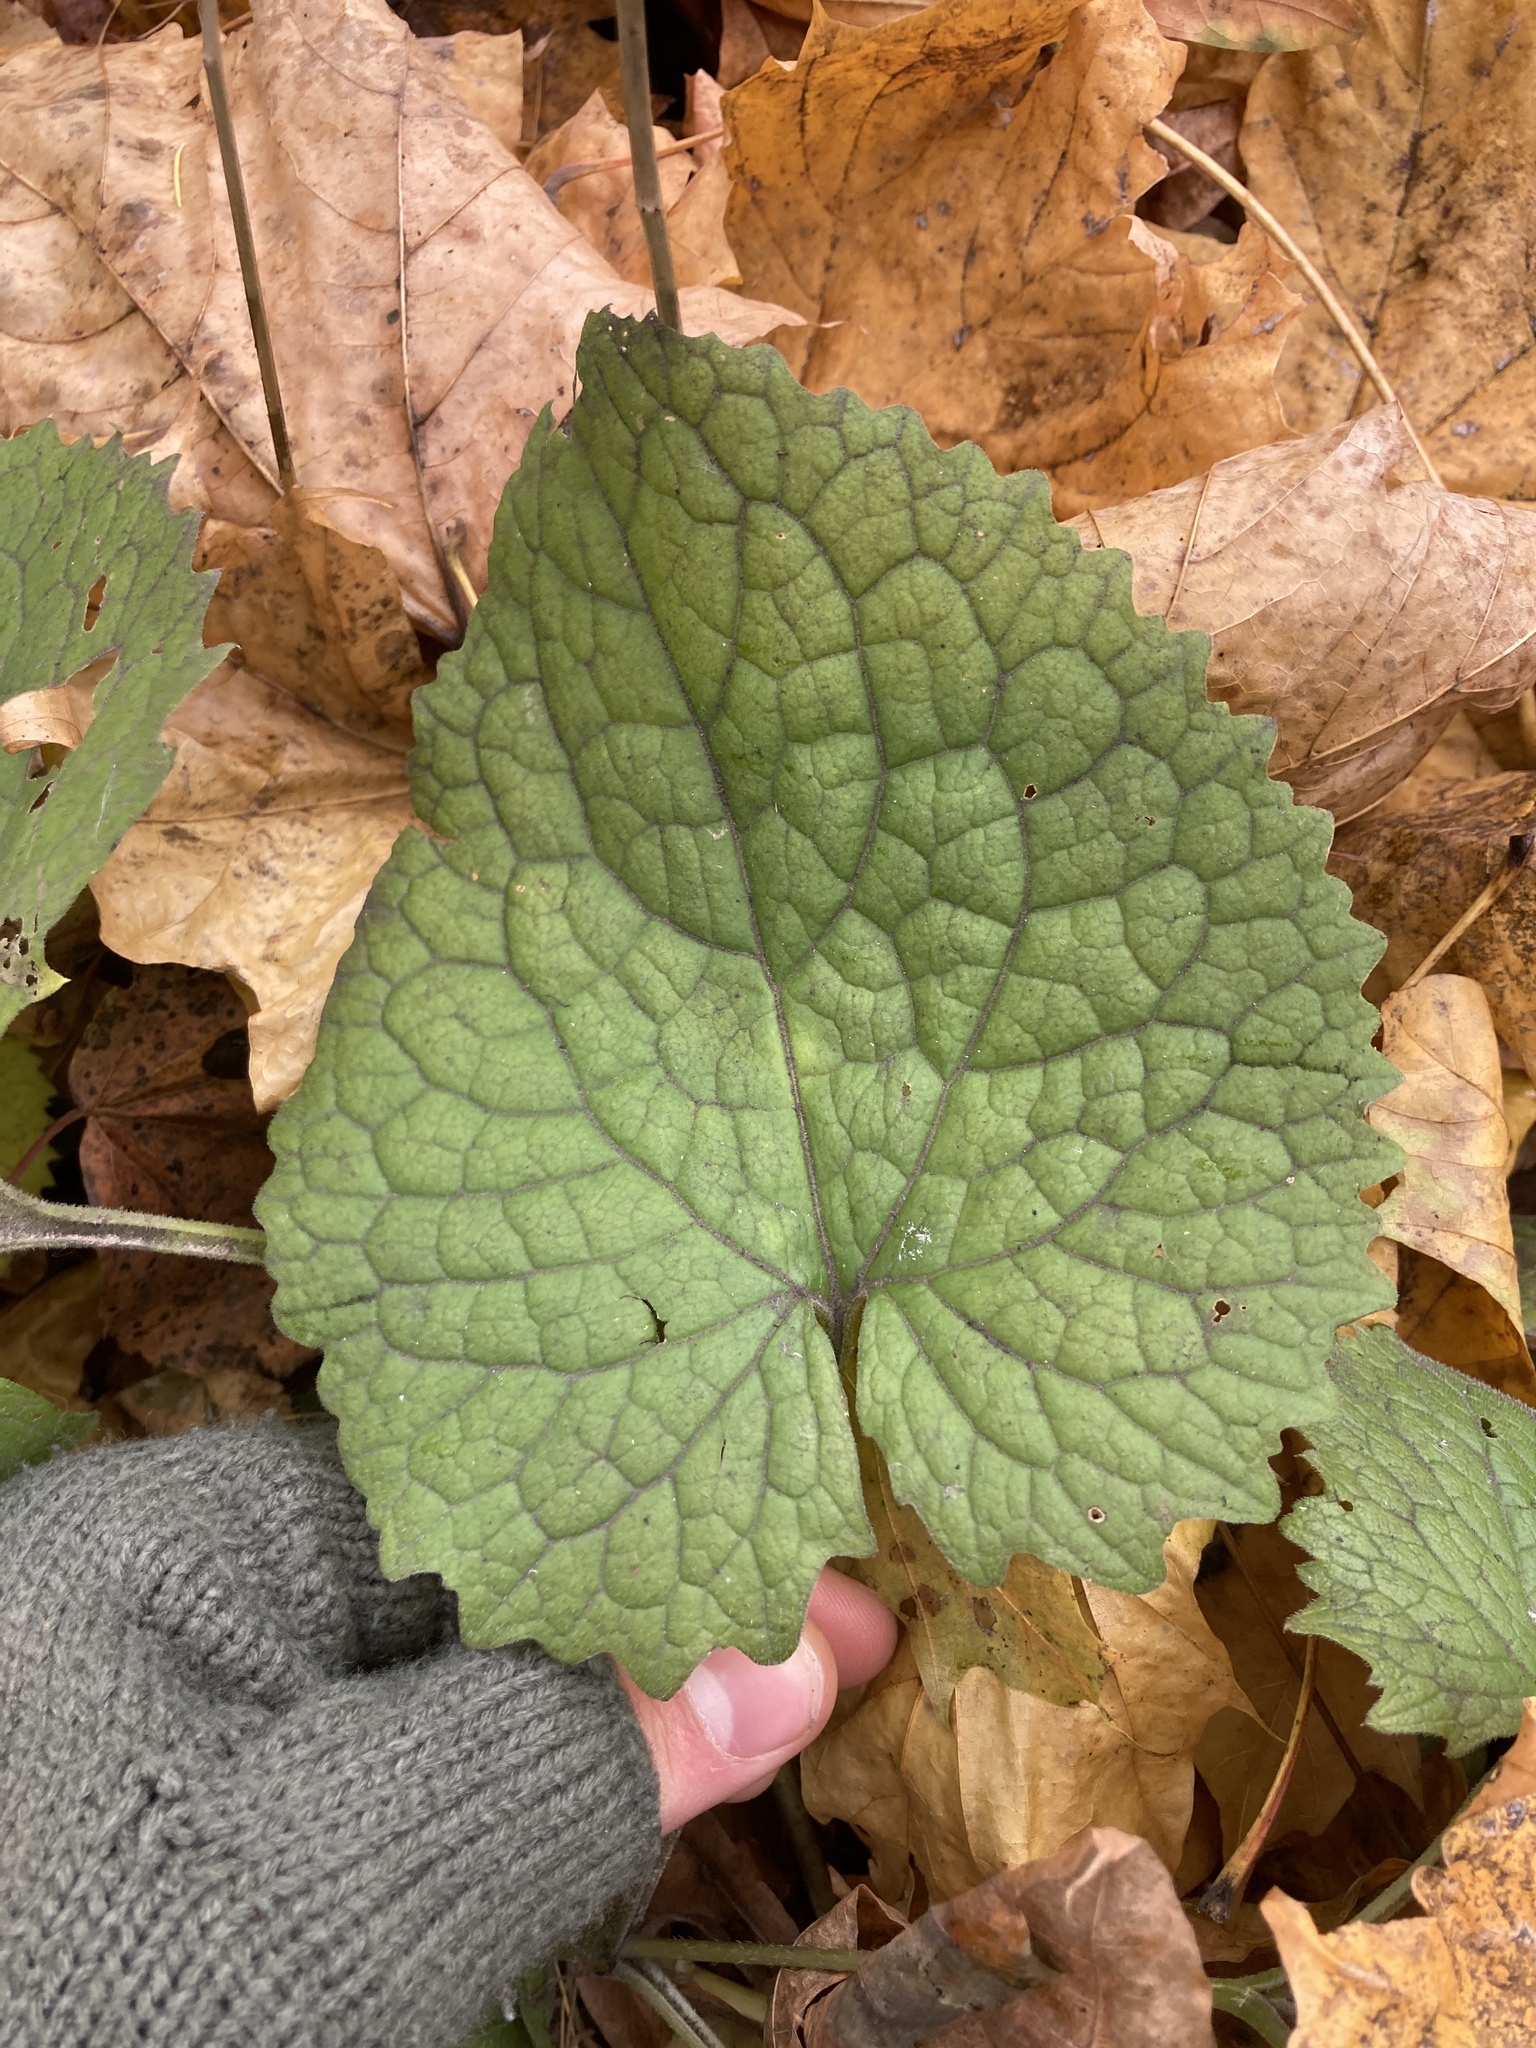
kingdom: Plantae
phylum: Tracheophyta
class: Magnoliopsida
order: Brassicales
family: Brassicaceae
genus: Lunaria
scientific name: Lunaria rediviva
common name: Perennial honesty
